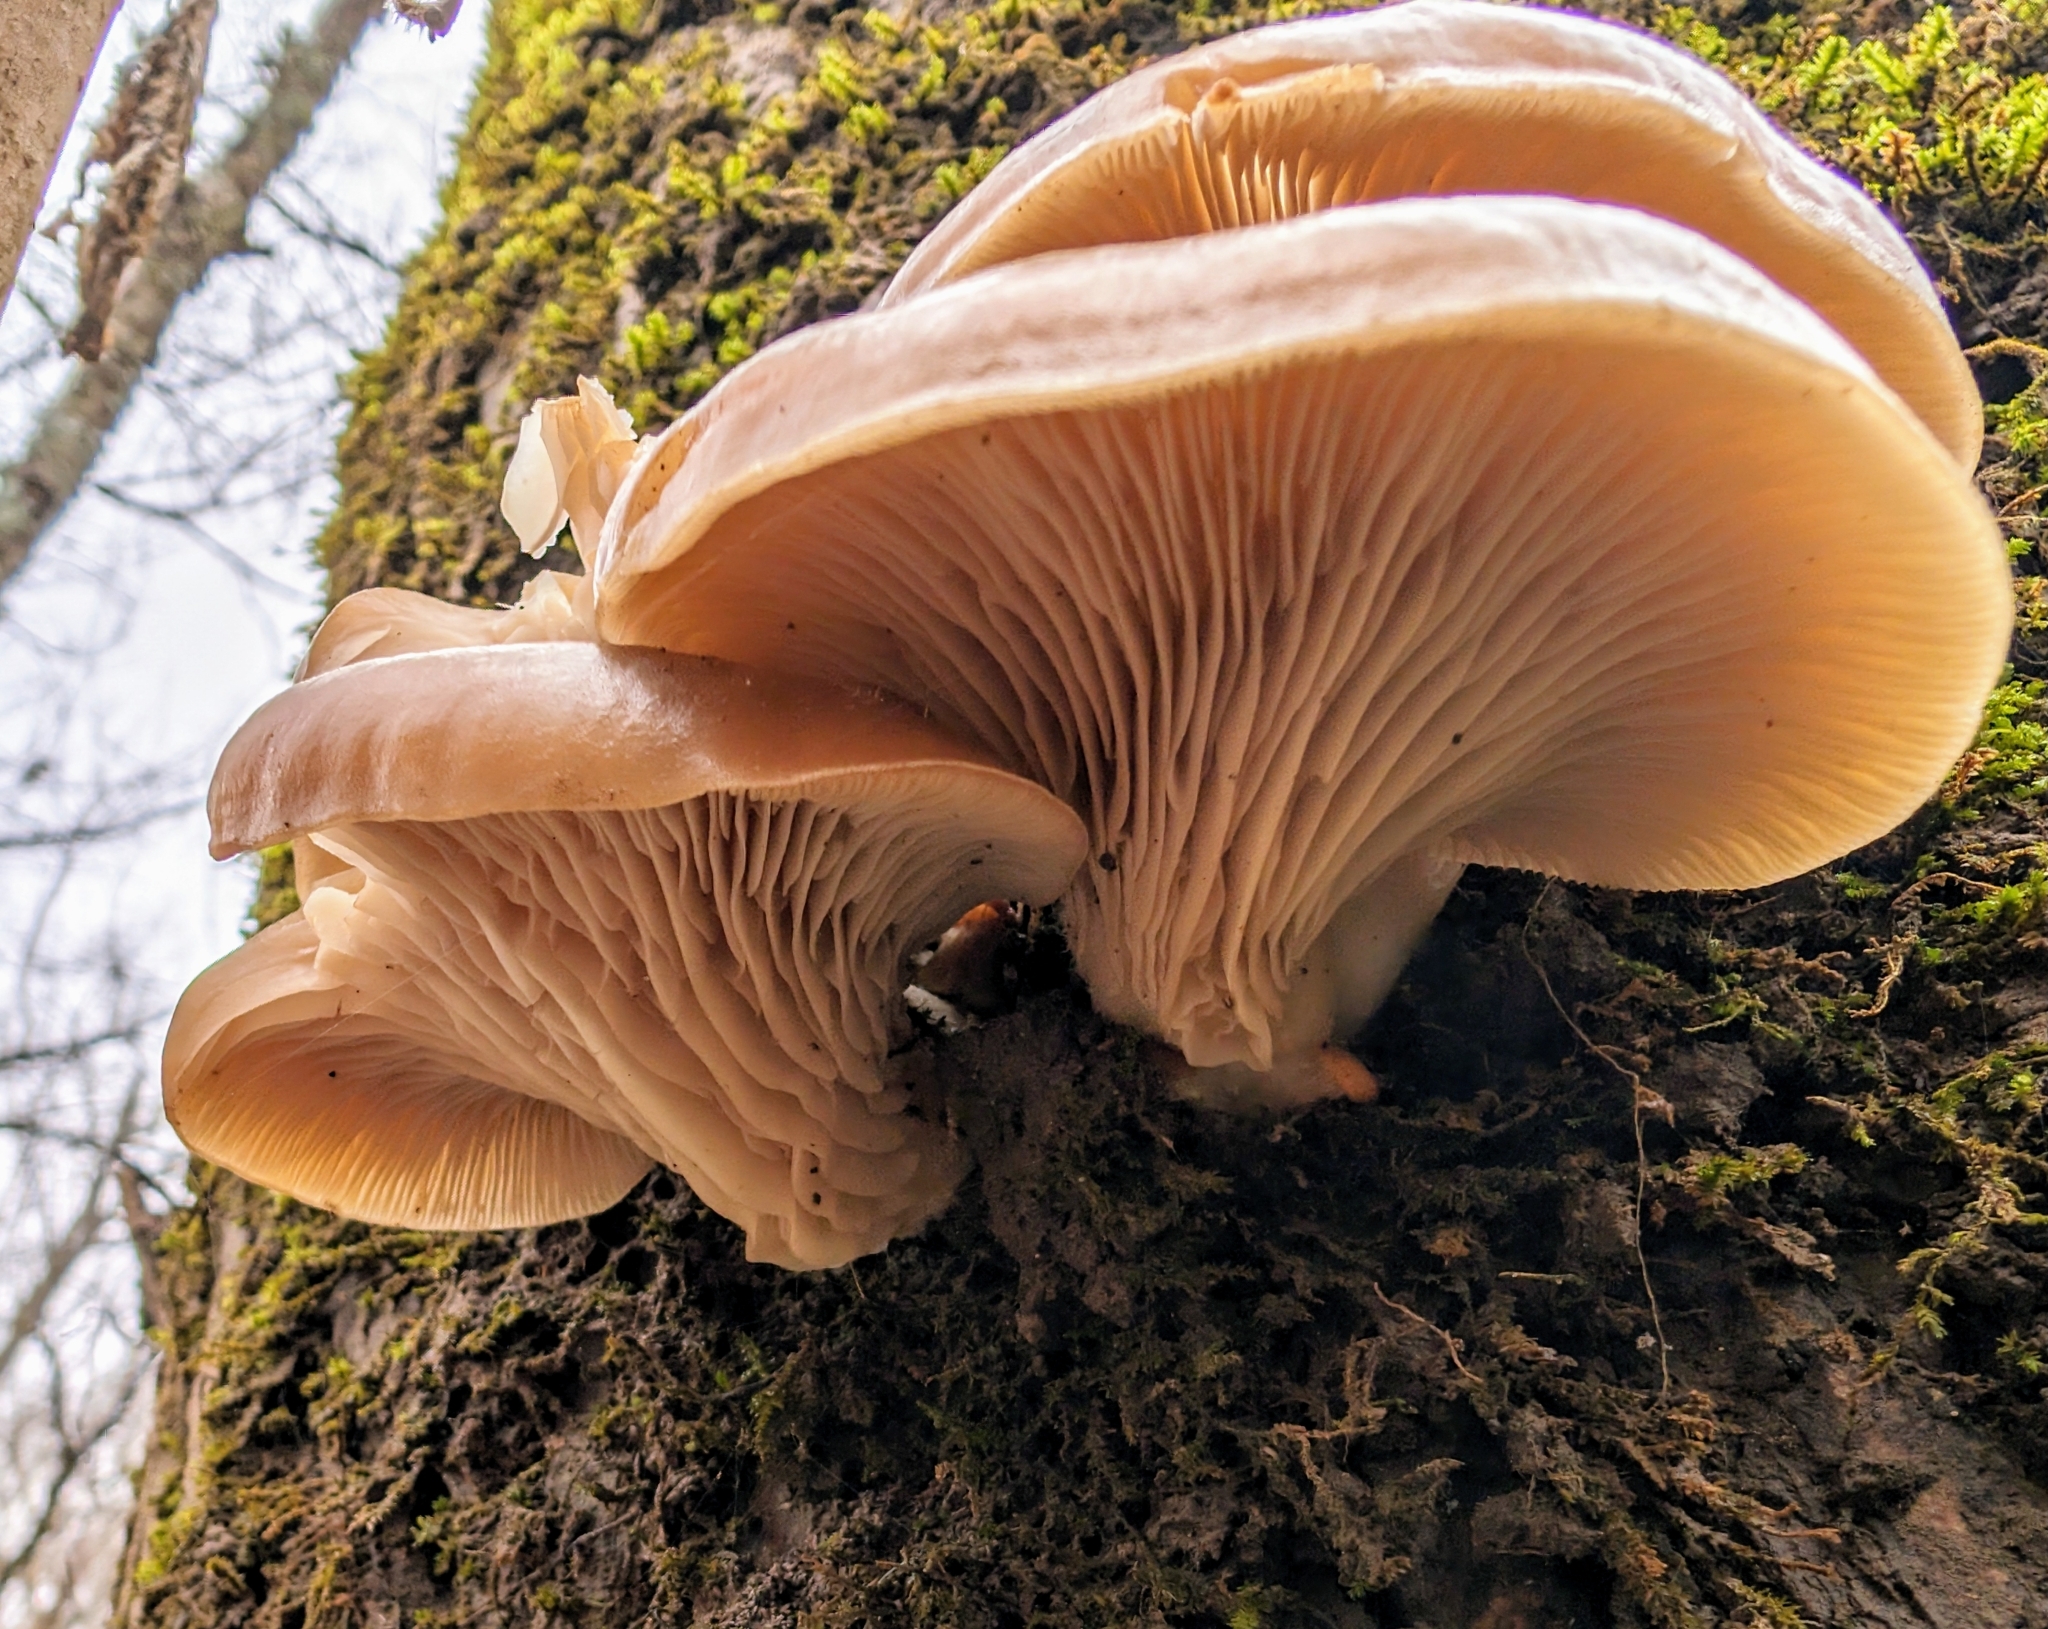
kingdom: Fungi
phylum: Basidiomycota
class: Agaricomycetes
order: Agaricales
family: Pleurotaceae
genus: Pleurotus
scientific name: Pleurotus ostreatus
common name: Oyster mushroom
